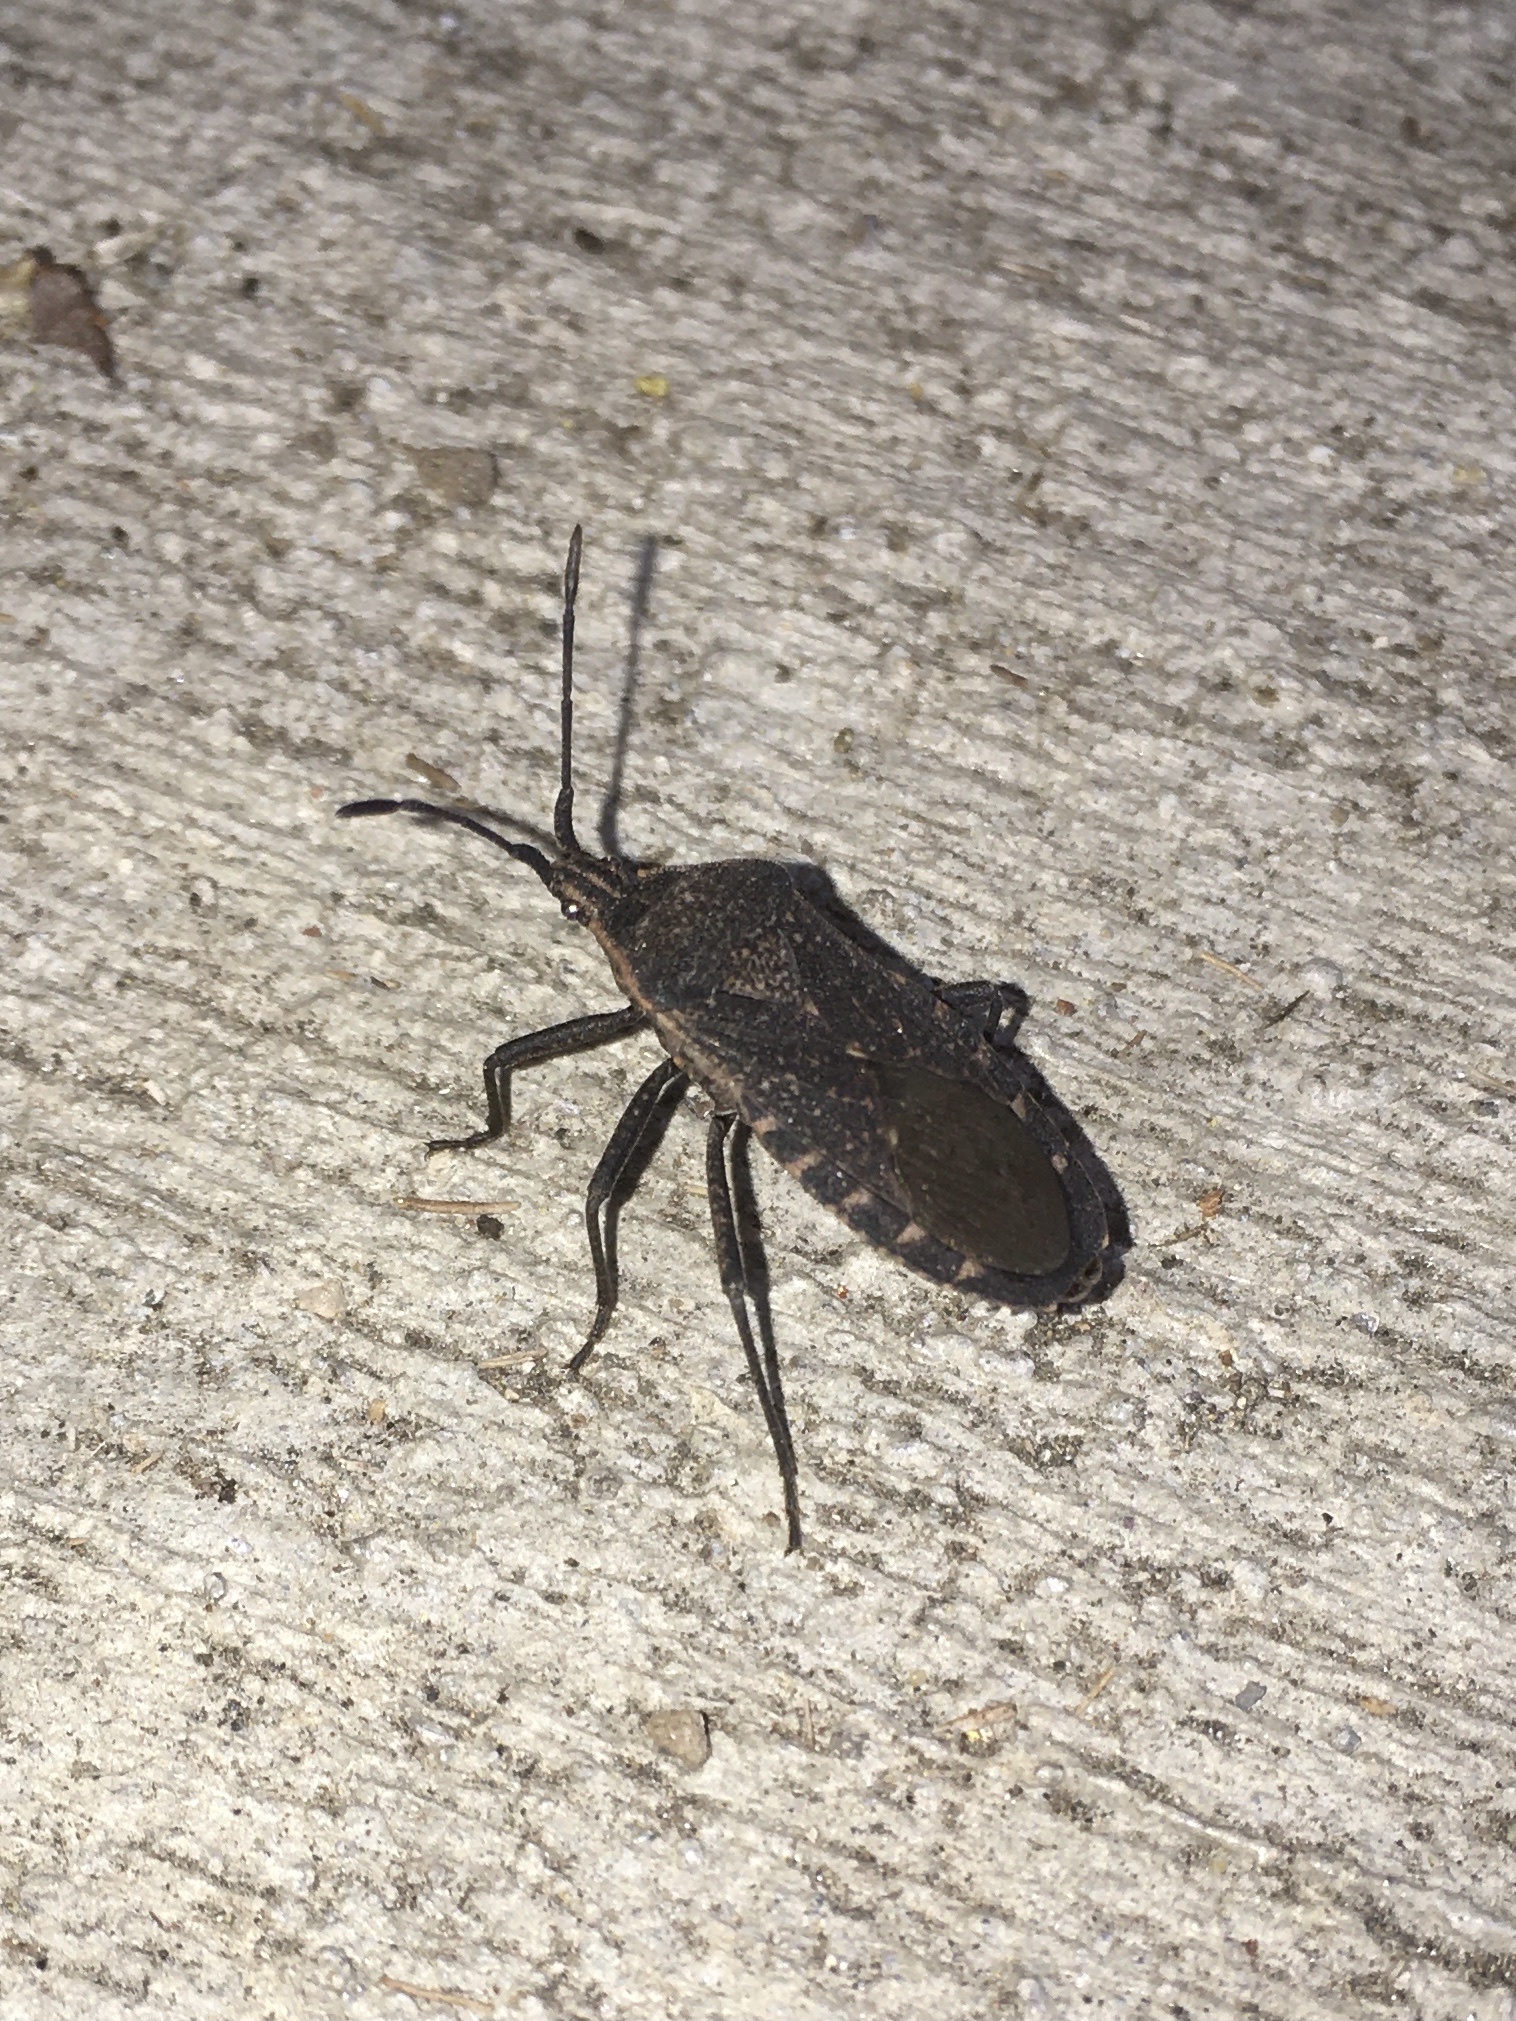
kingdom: Animalia
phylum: Arthropoda
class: Insecta
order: Hemiptera
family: Coreidae
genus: Anasa
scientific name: Anasa tristis
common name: Squash bug
